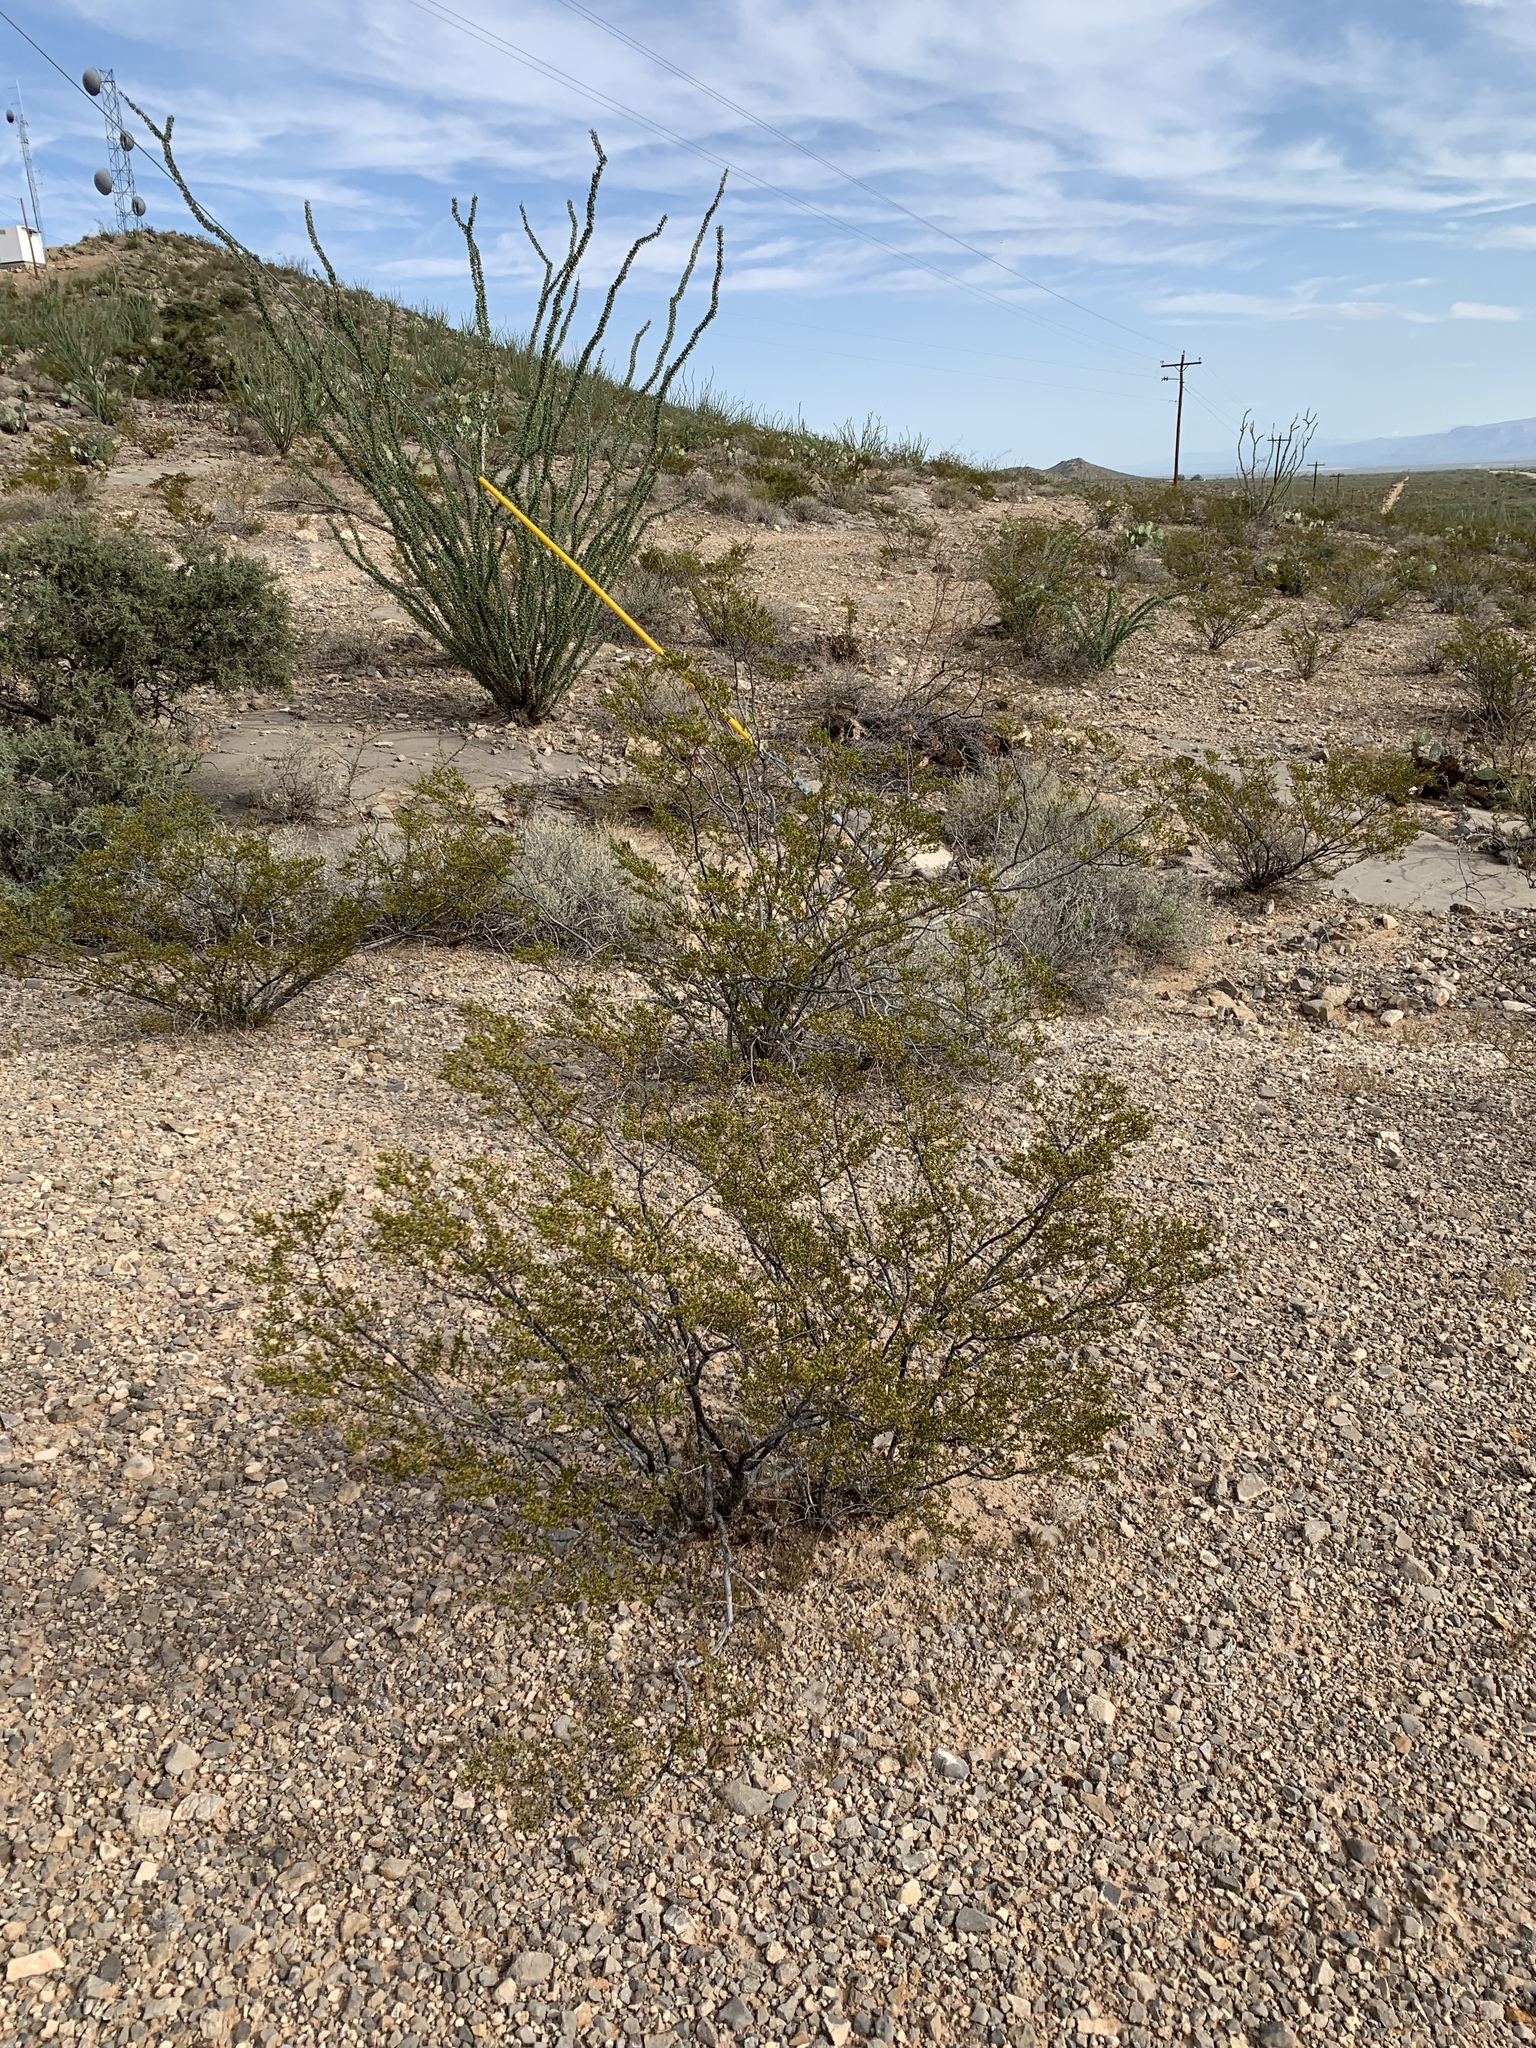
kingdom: Plantae
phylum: Tracheophyta
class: Magnoliopsida
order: Zygophyllales
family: Zygophyllaceae
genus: Larrea
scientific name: Larrea tridentata
